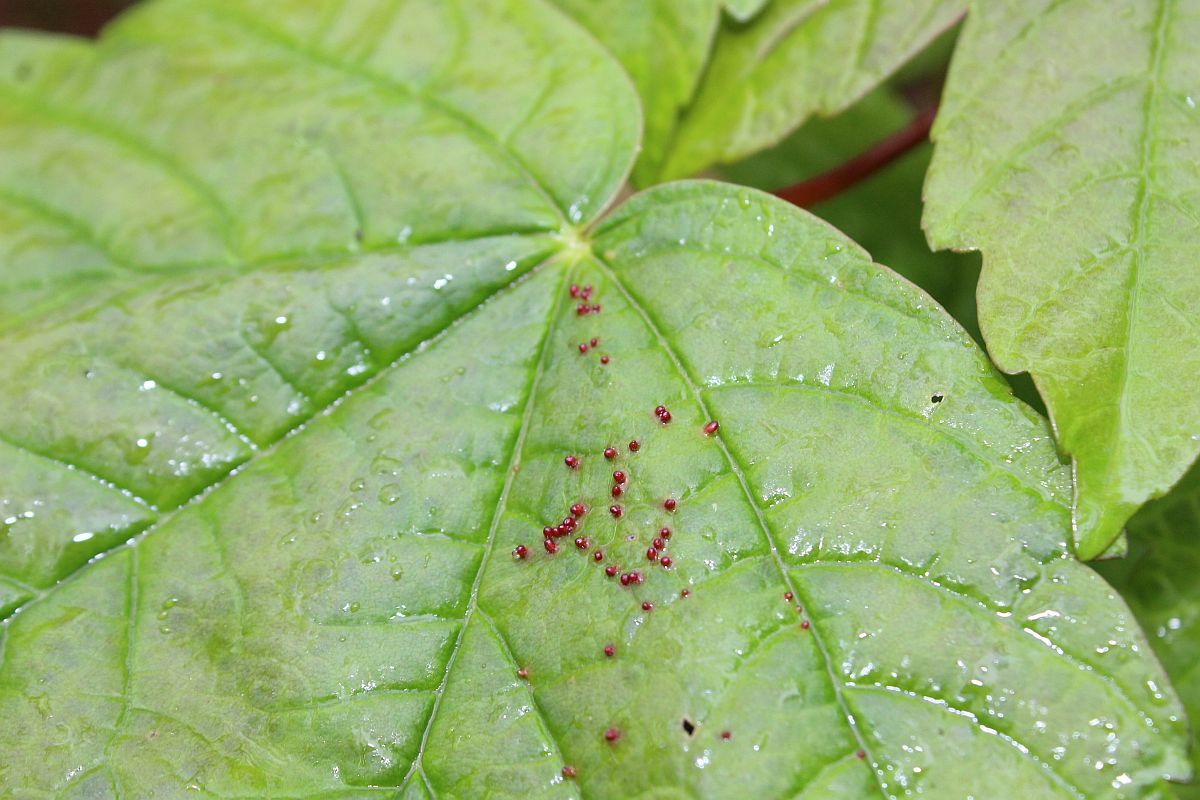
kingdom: Animalia
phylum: Arthropoda
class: Arachnida
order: Trombidiformes
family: Eriophyidae
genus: Aceria
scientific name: Aceria cephaloneus
